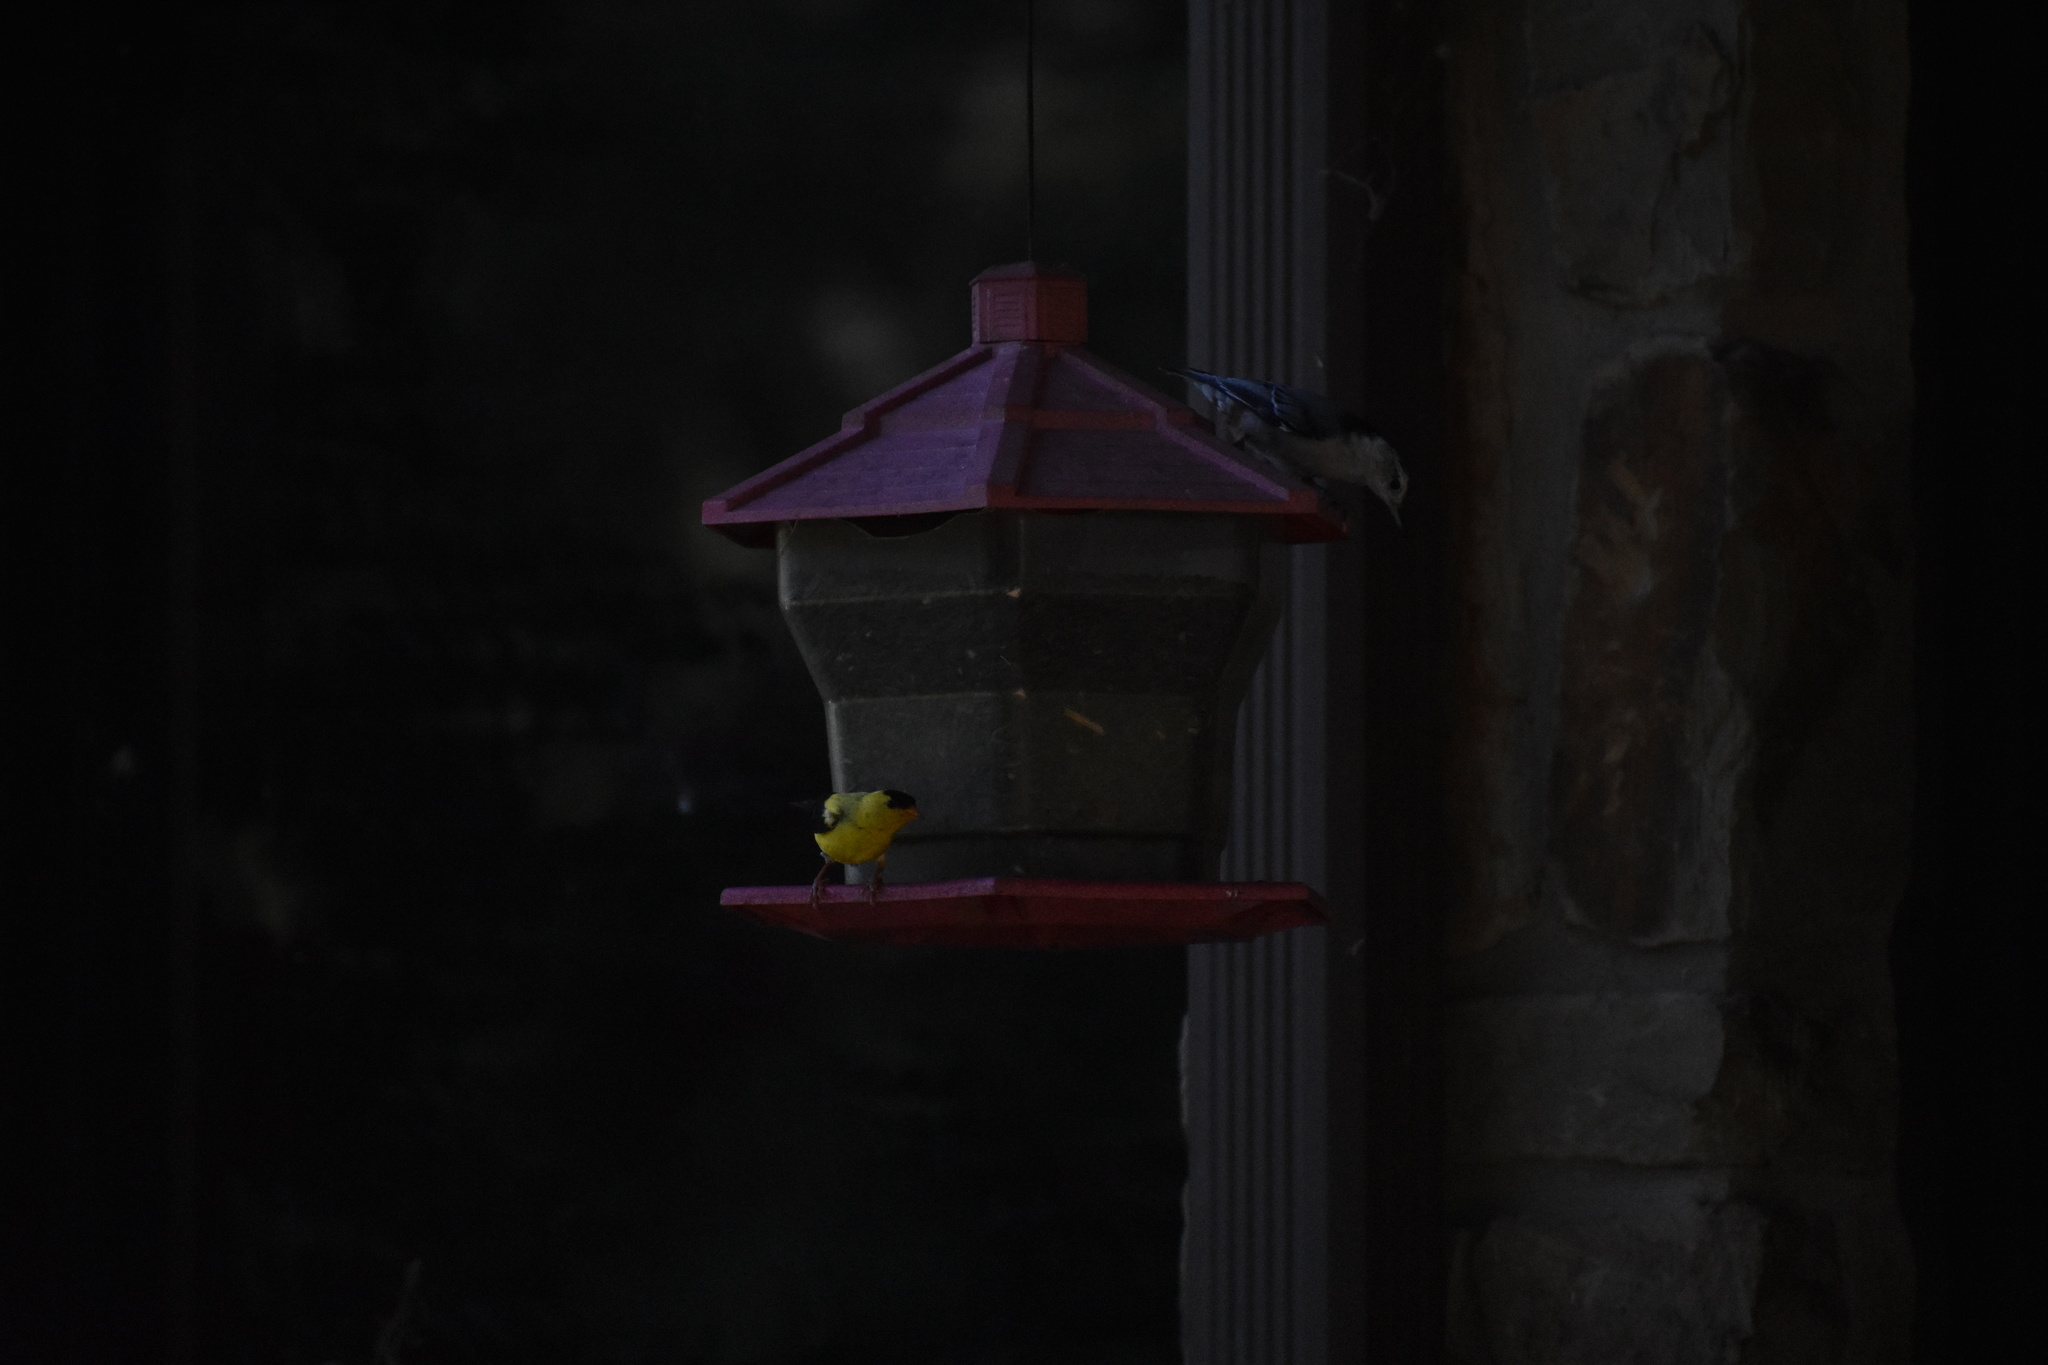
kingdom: Animalia
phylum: Chordata
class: Aves
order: Passeriformes
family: Fringillidae
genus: Spinus
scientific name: Spinus tristis
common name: American goldfinch
